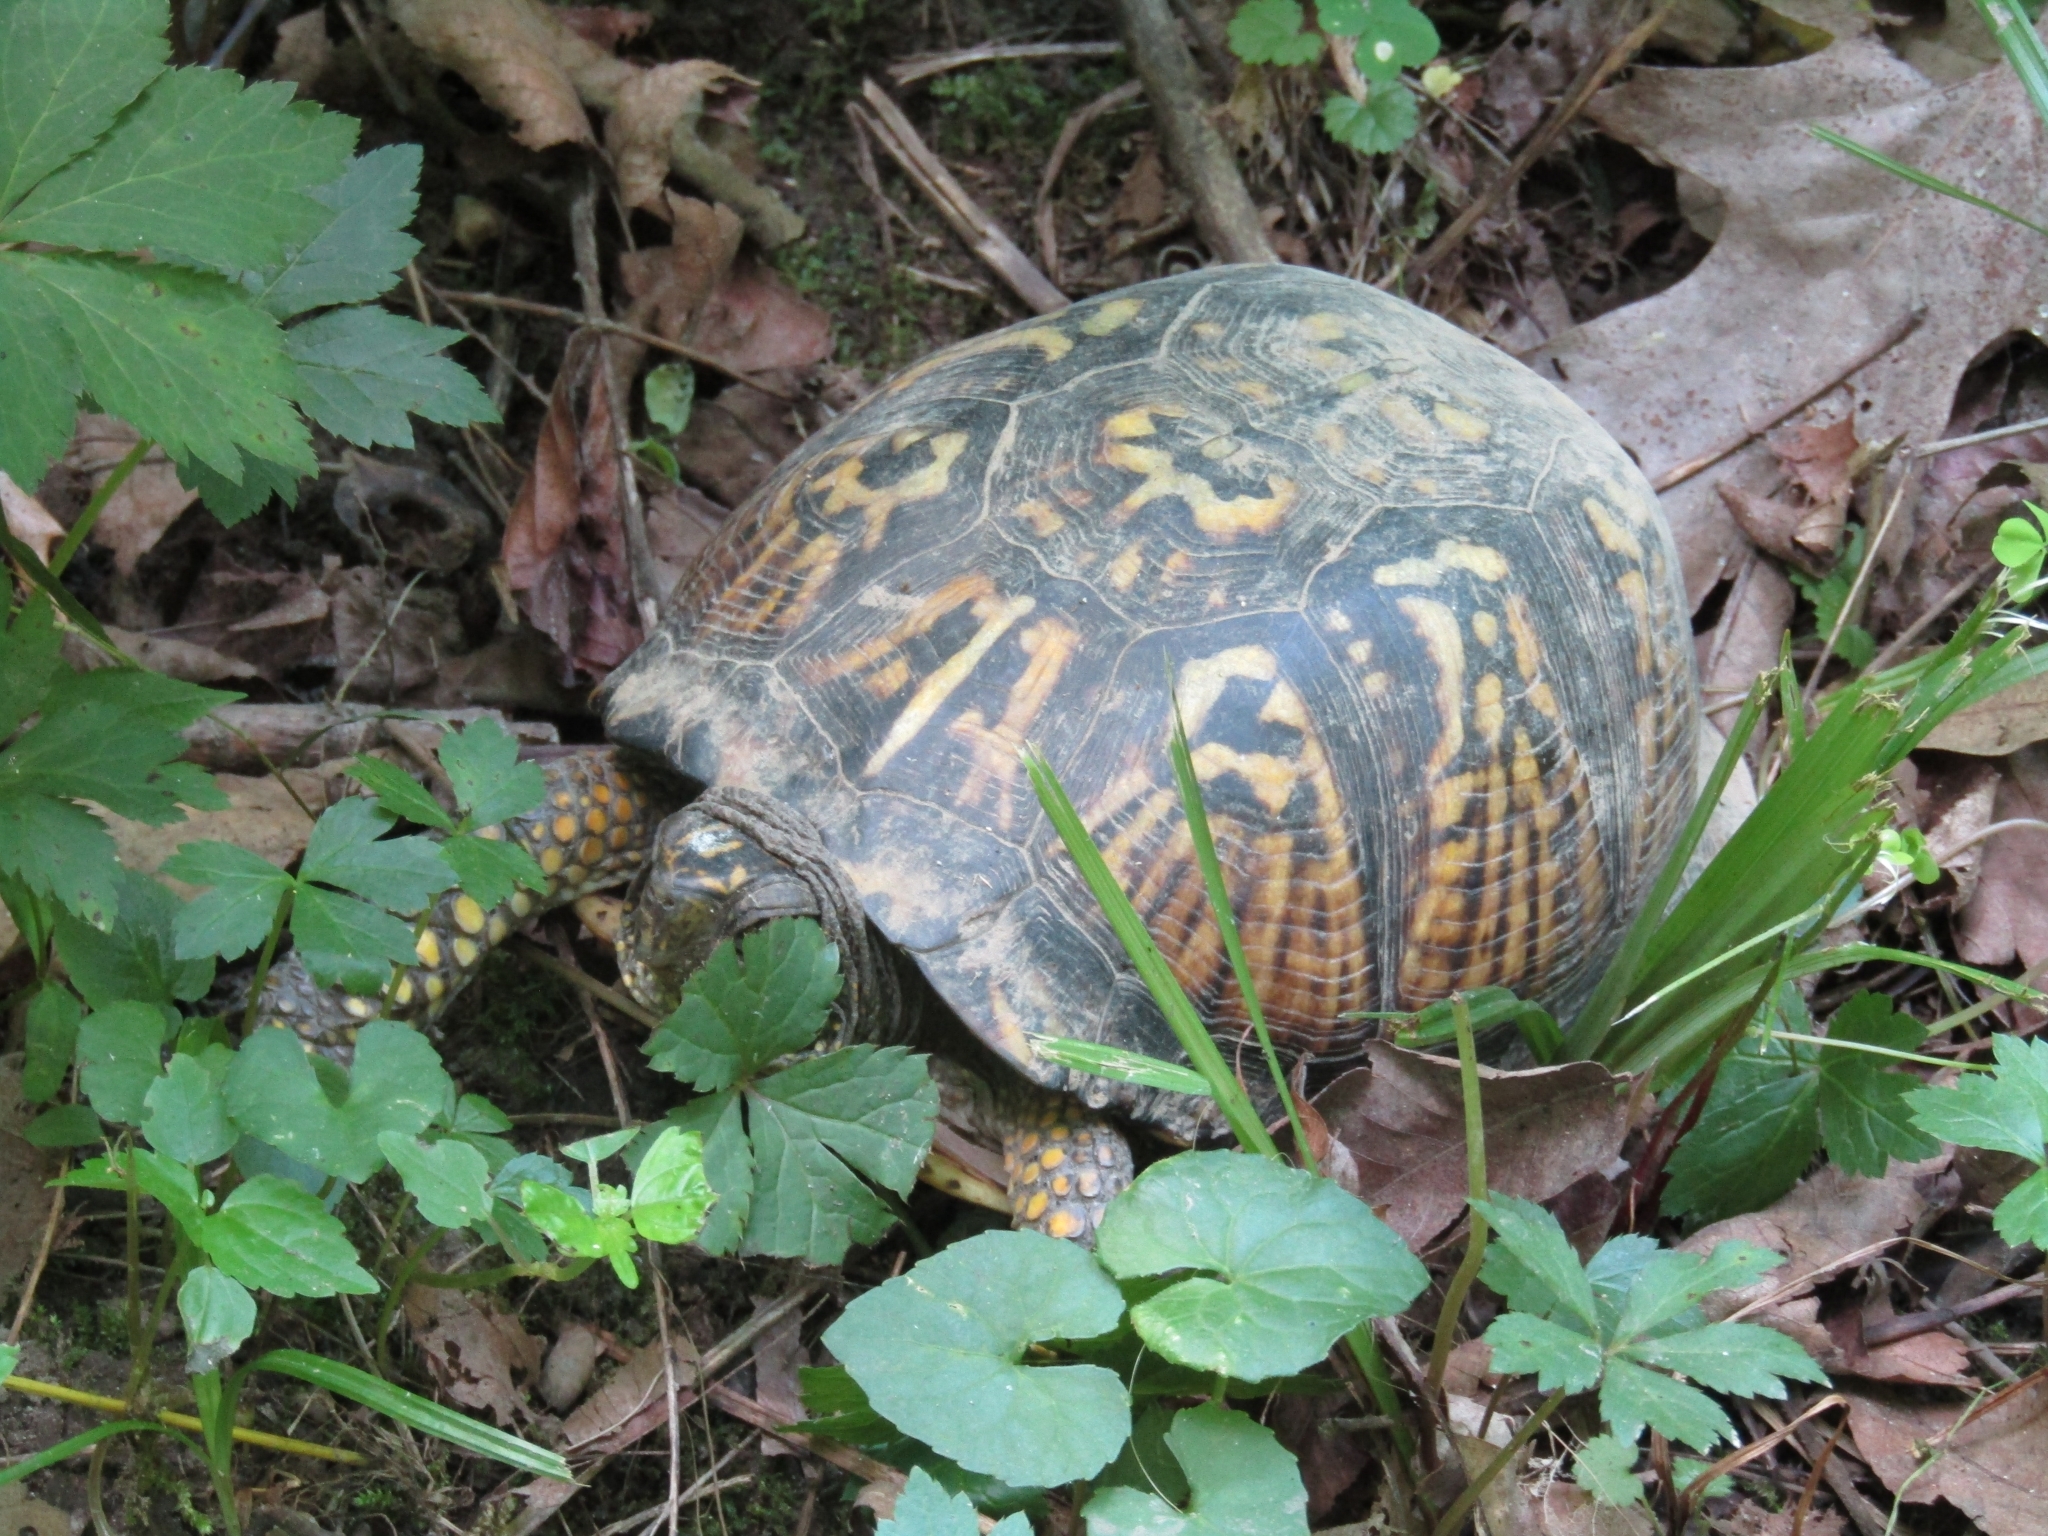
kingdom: Animalia
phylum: Chordata
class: Testudines
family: Emydidae
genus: Terrapene
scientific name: Terrapene carolina
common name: Common box turtle
